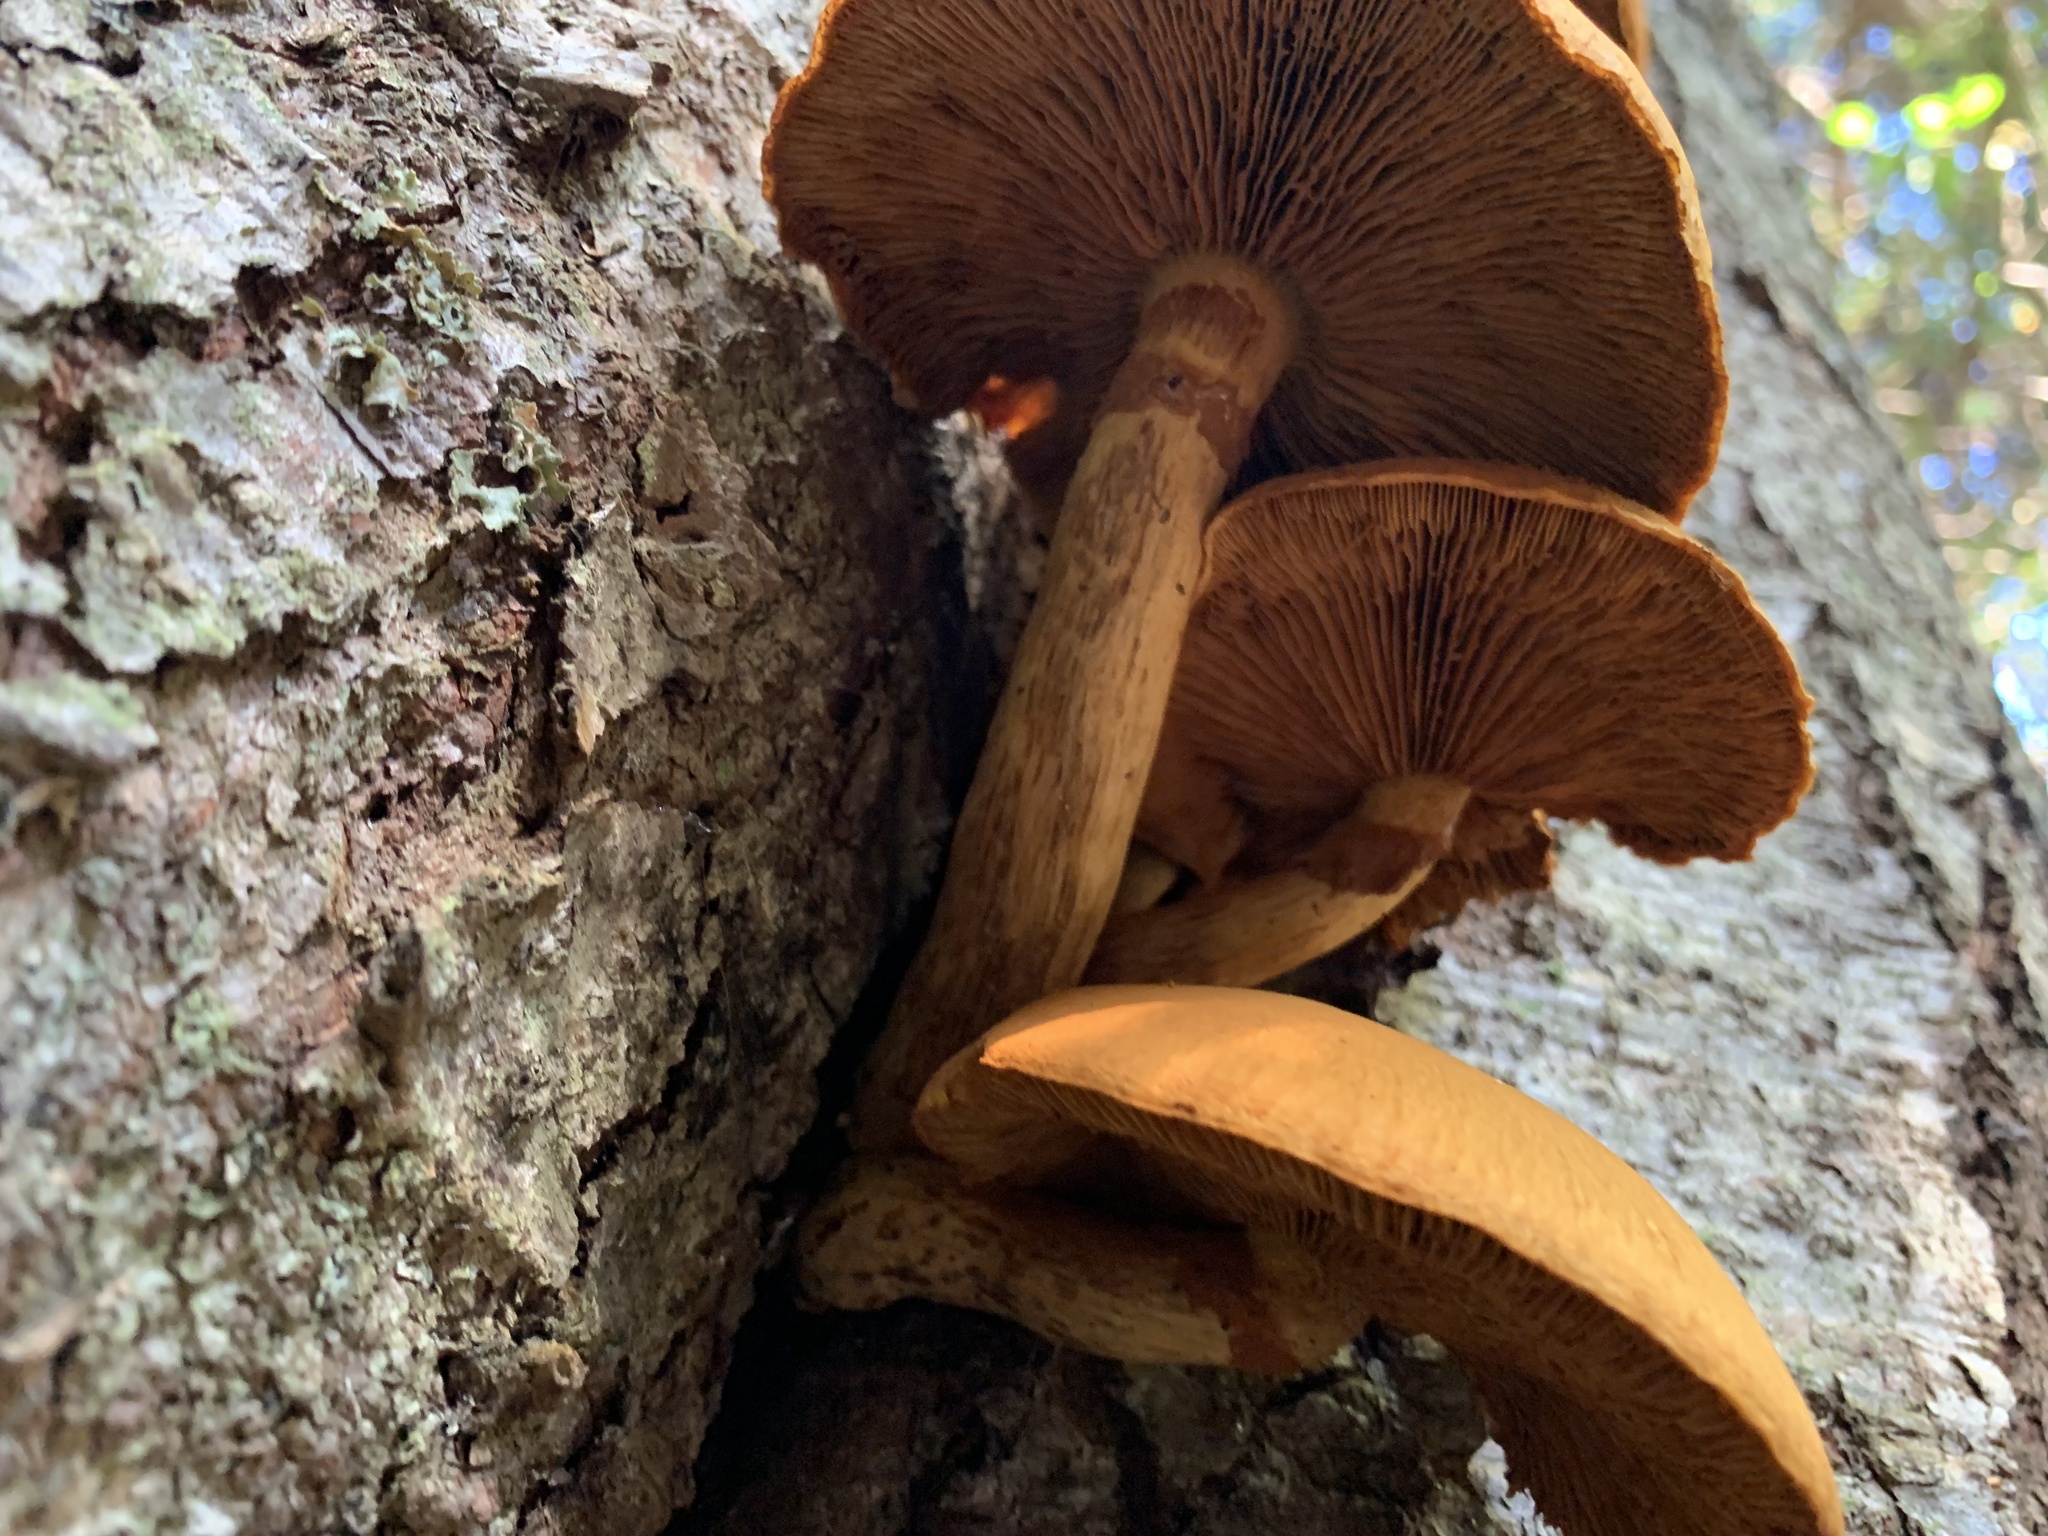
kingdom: Fungi
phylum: Basidiomycota
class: Agaricomycetes
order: Agaricales
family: Hymenogastraceae
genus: Gymnopilus
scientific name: Gymnopilus luteus
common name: Yellow gymnopilus
